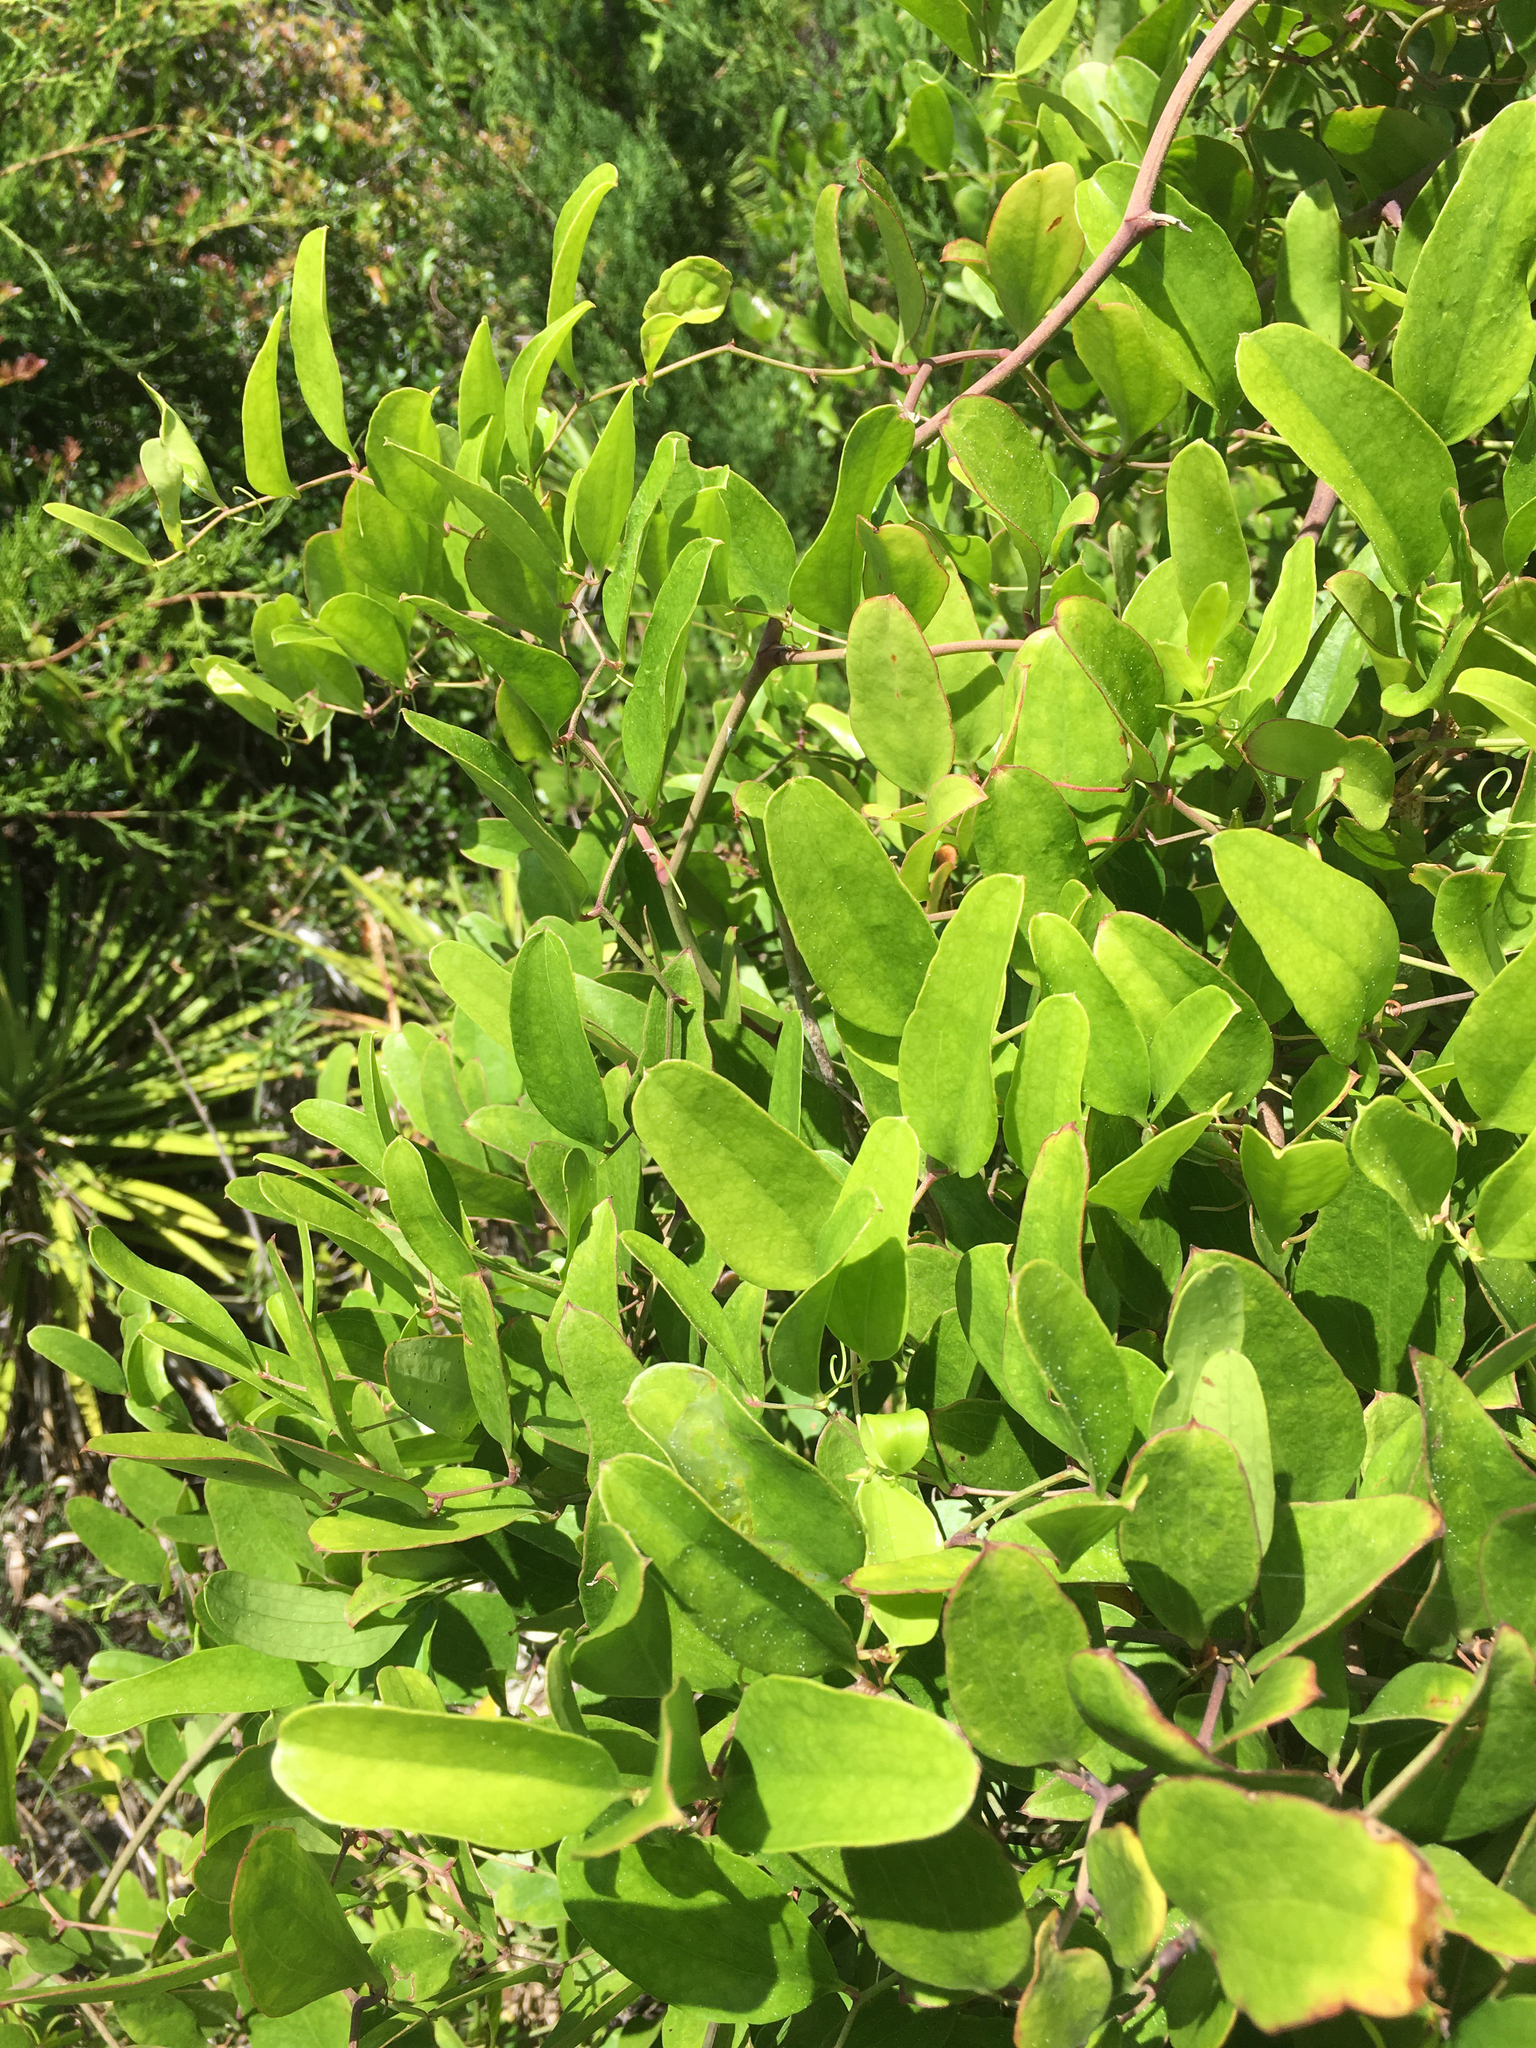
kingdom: Plantae
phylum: Tracheophyta
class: Liliopsida
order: Liliales
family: Smilacaceae
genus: Smilax
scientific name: Smilax auriculata
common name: Wild bamboo
